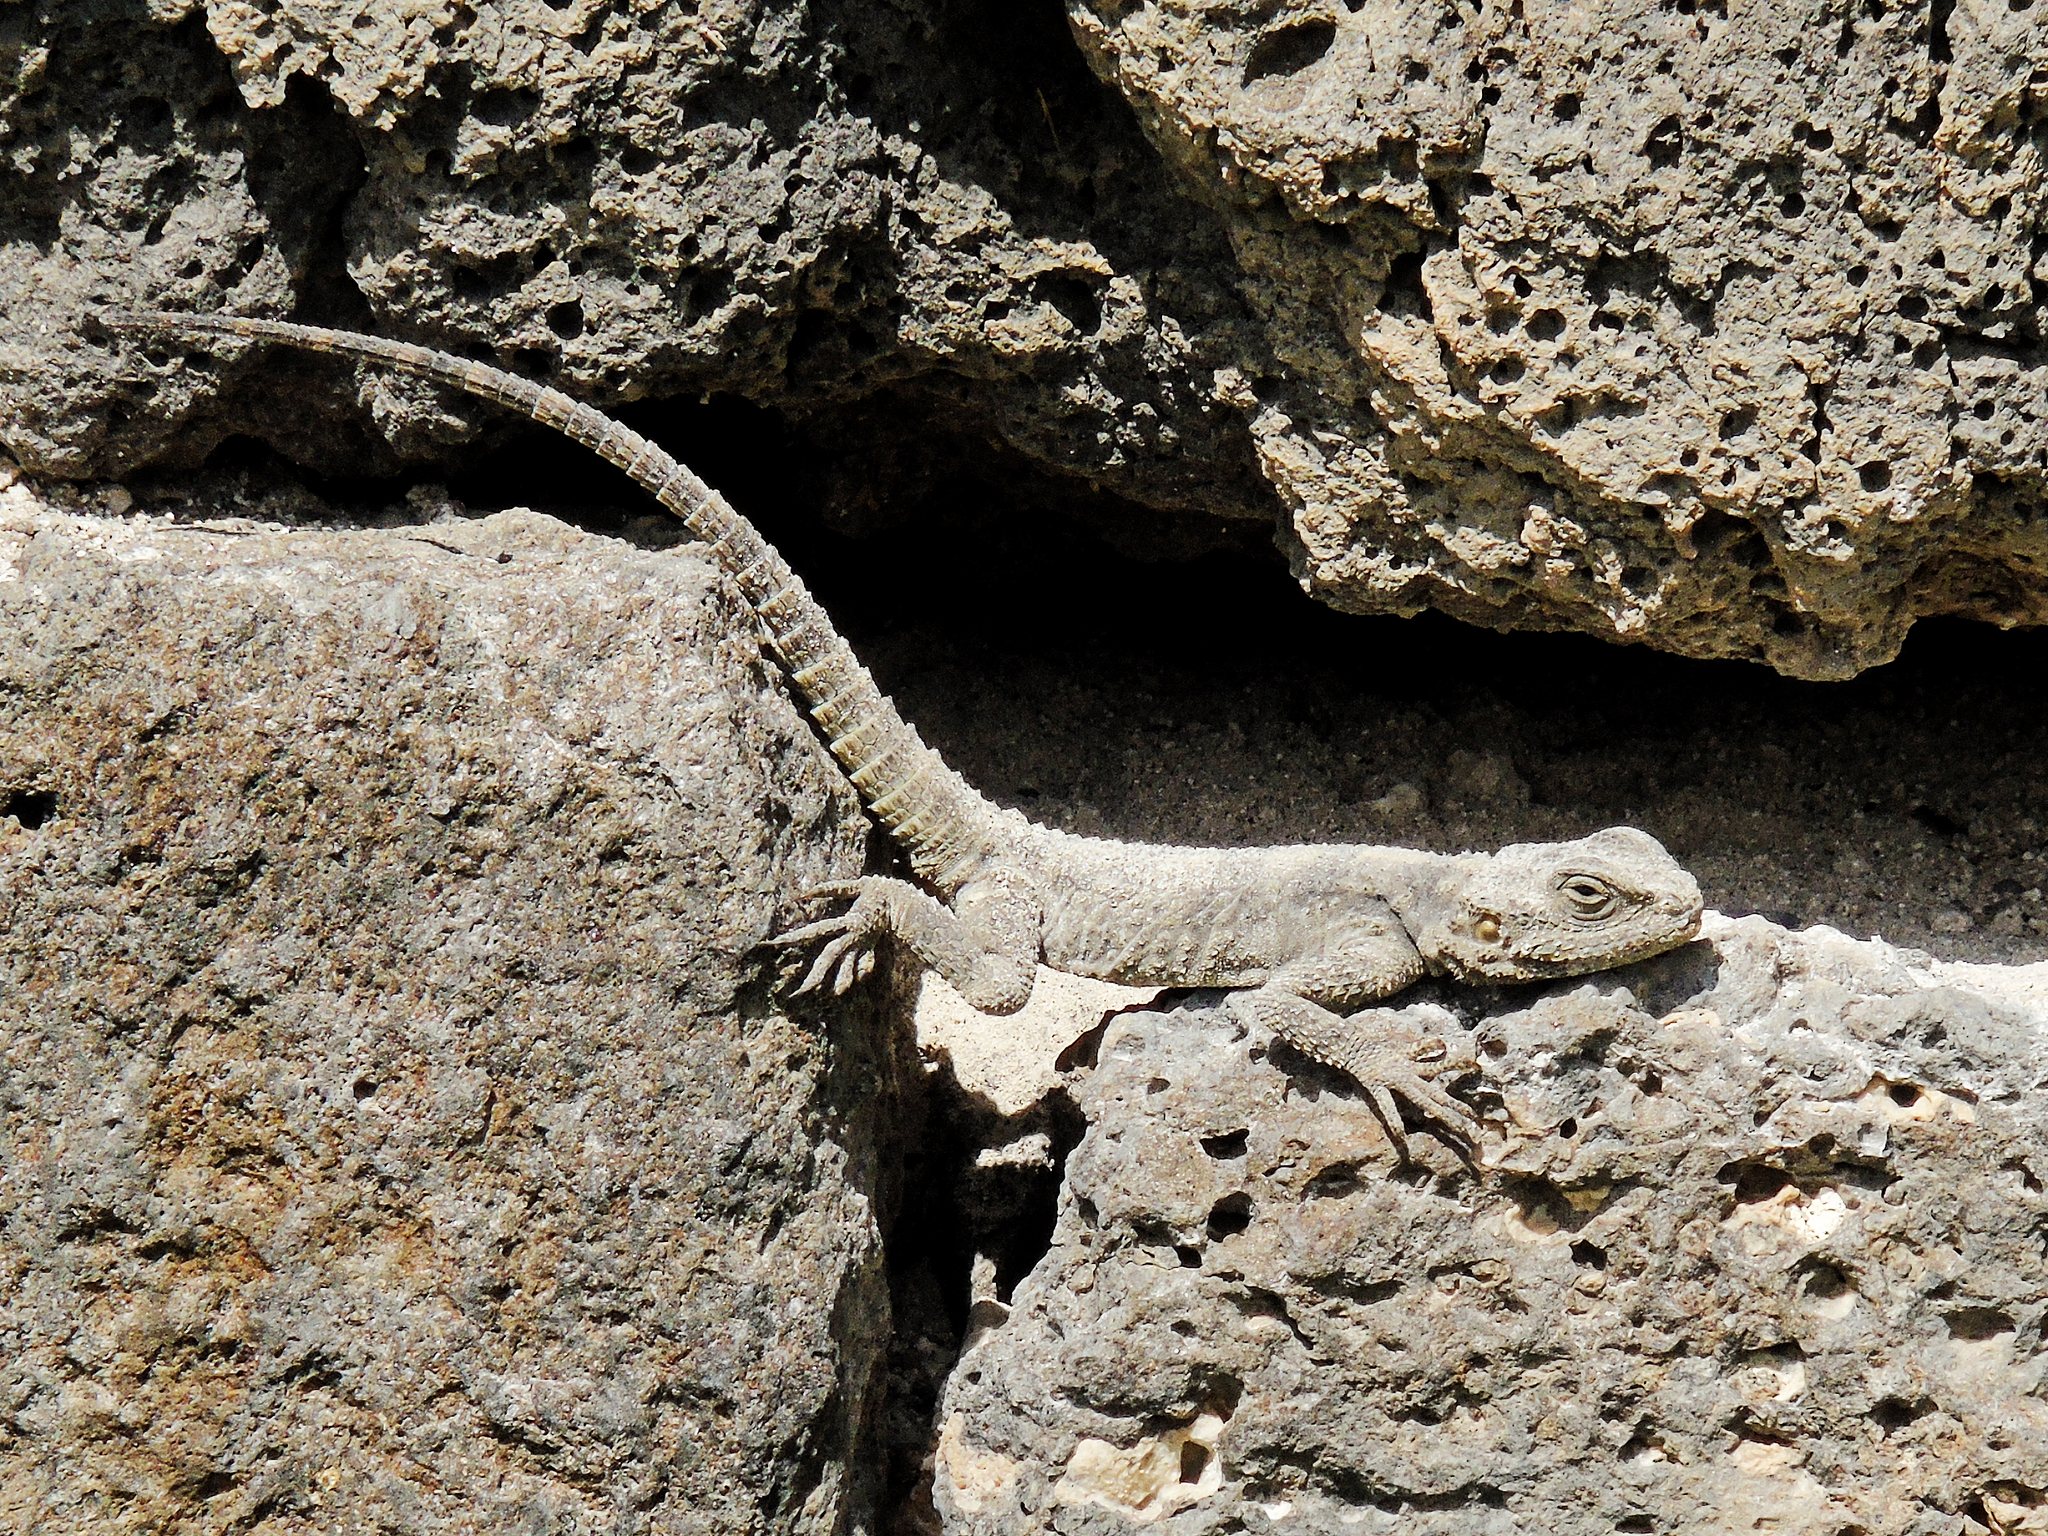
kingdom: Animalia
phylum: Chordata
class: Squamata
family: Agamidae
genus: Stellagama
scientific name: Stellagama stellio
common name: Starred agama
